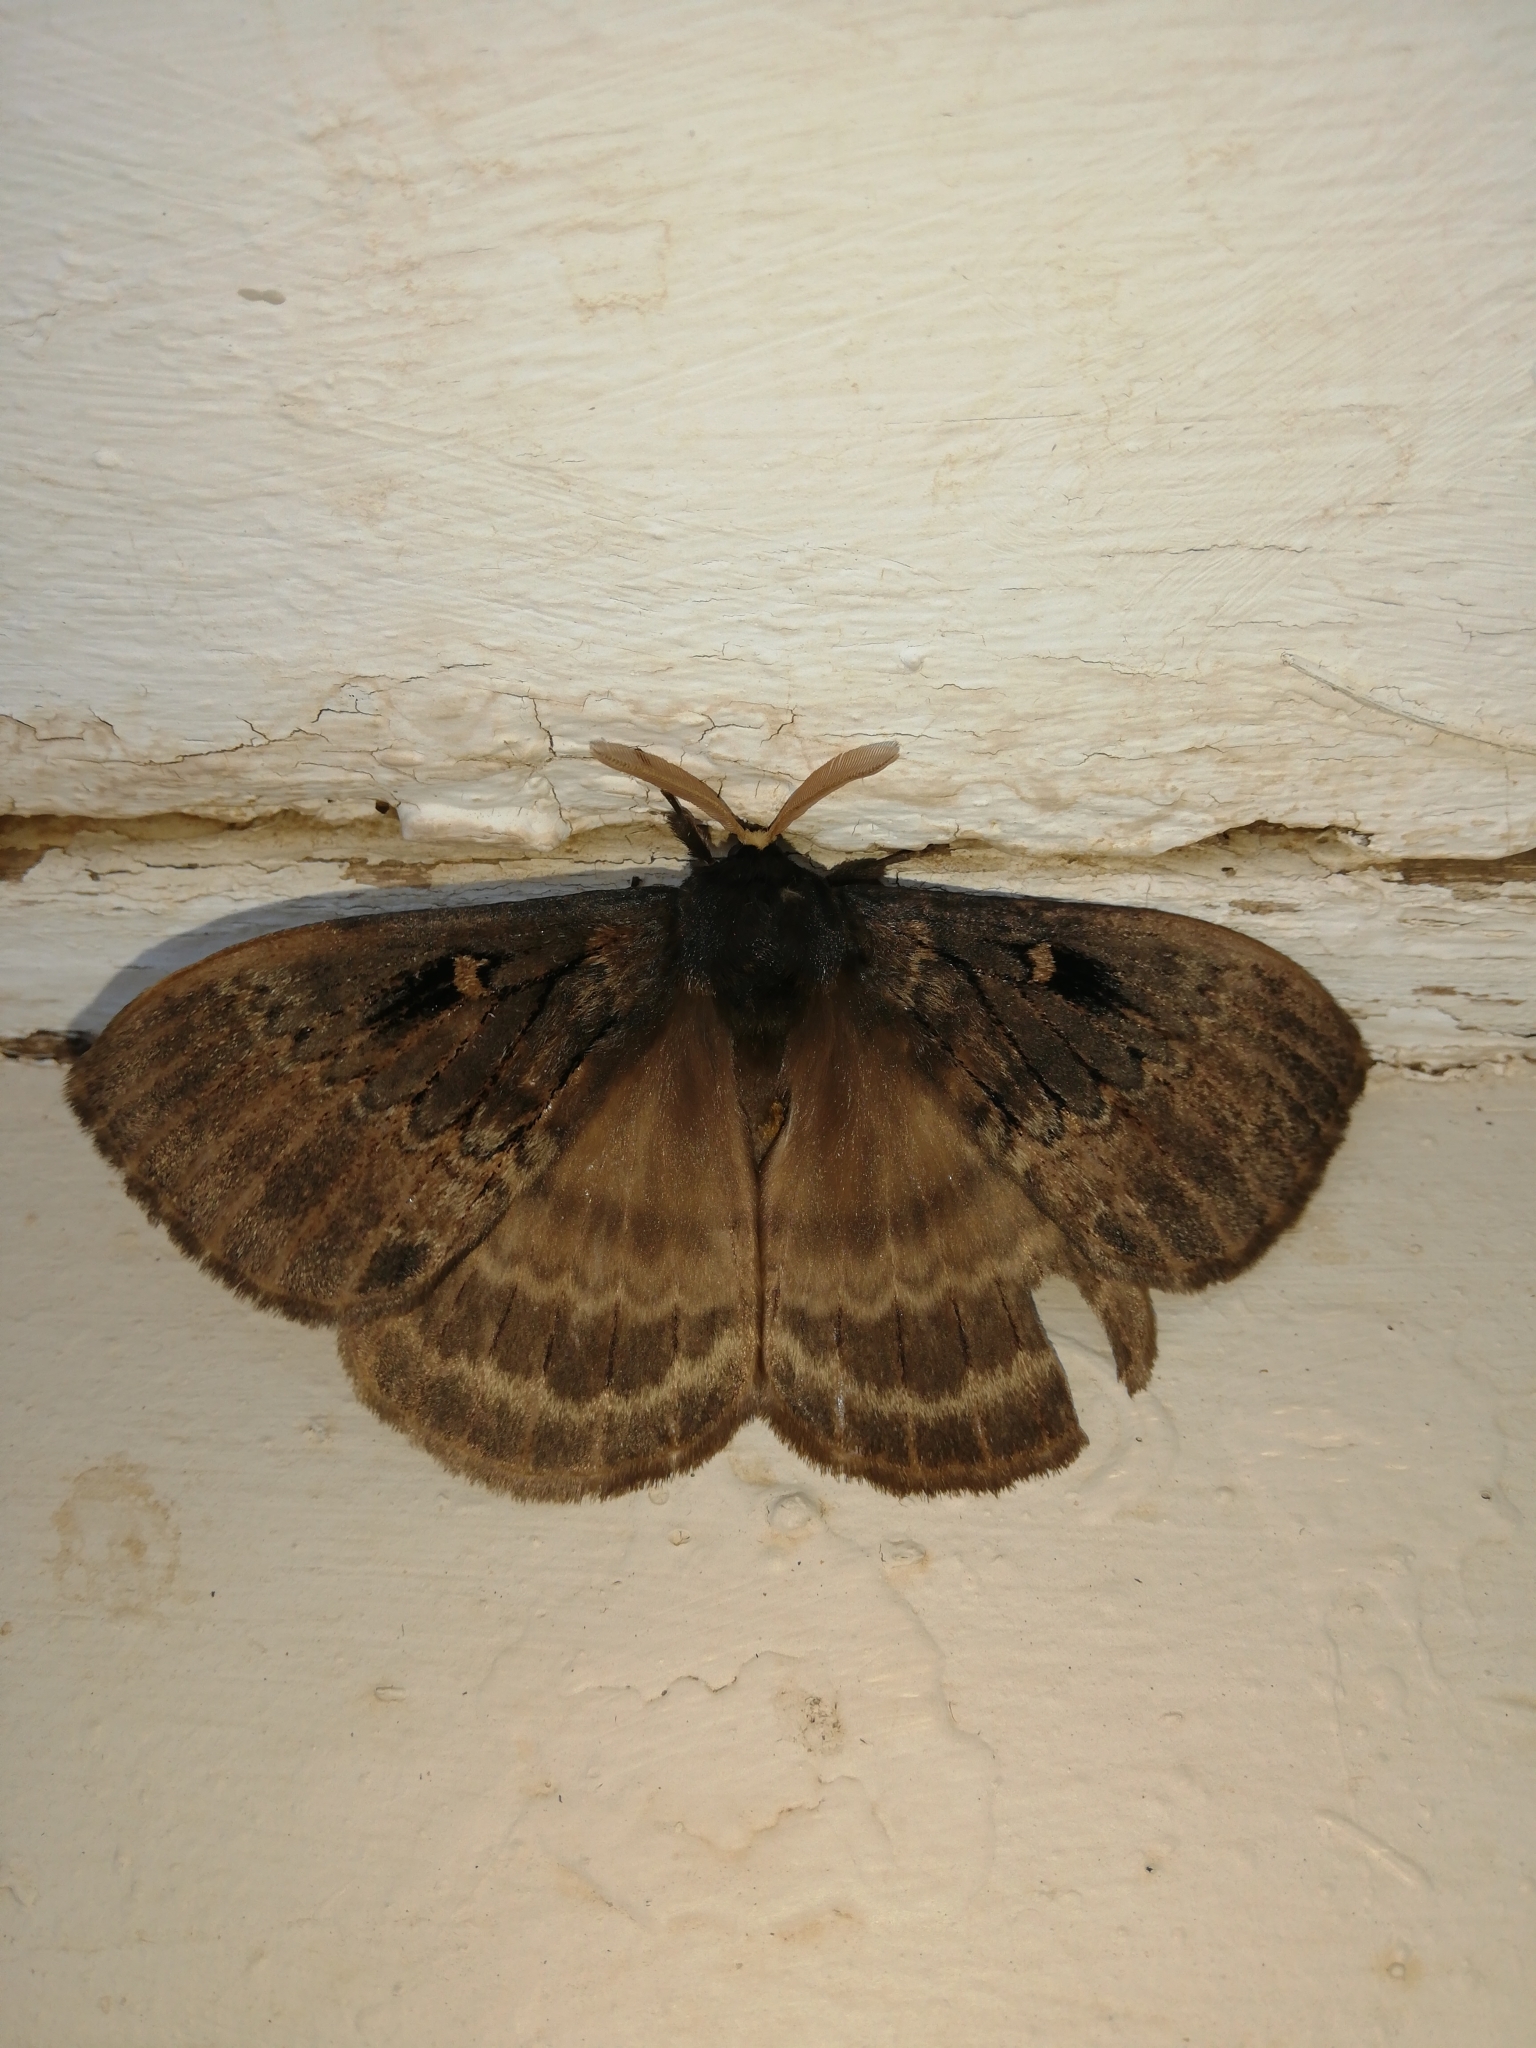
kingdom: Animalia
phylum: Arthropoda
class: Insecta
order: Lepidoptera
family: Eupterotidae
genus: Jana
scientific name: Jana tantalus
